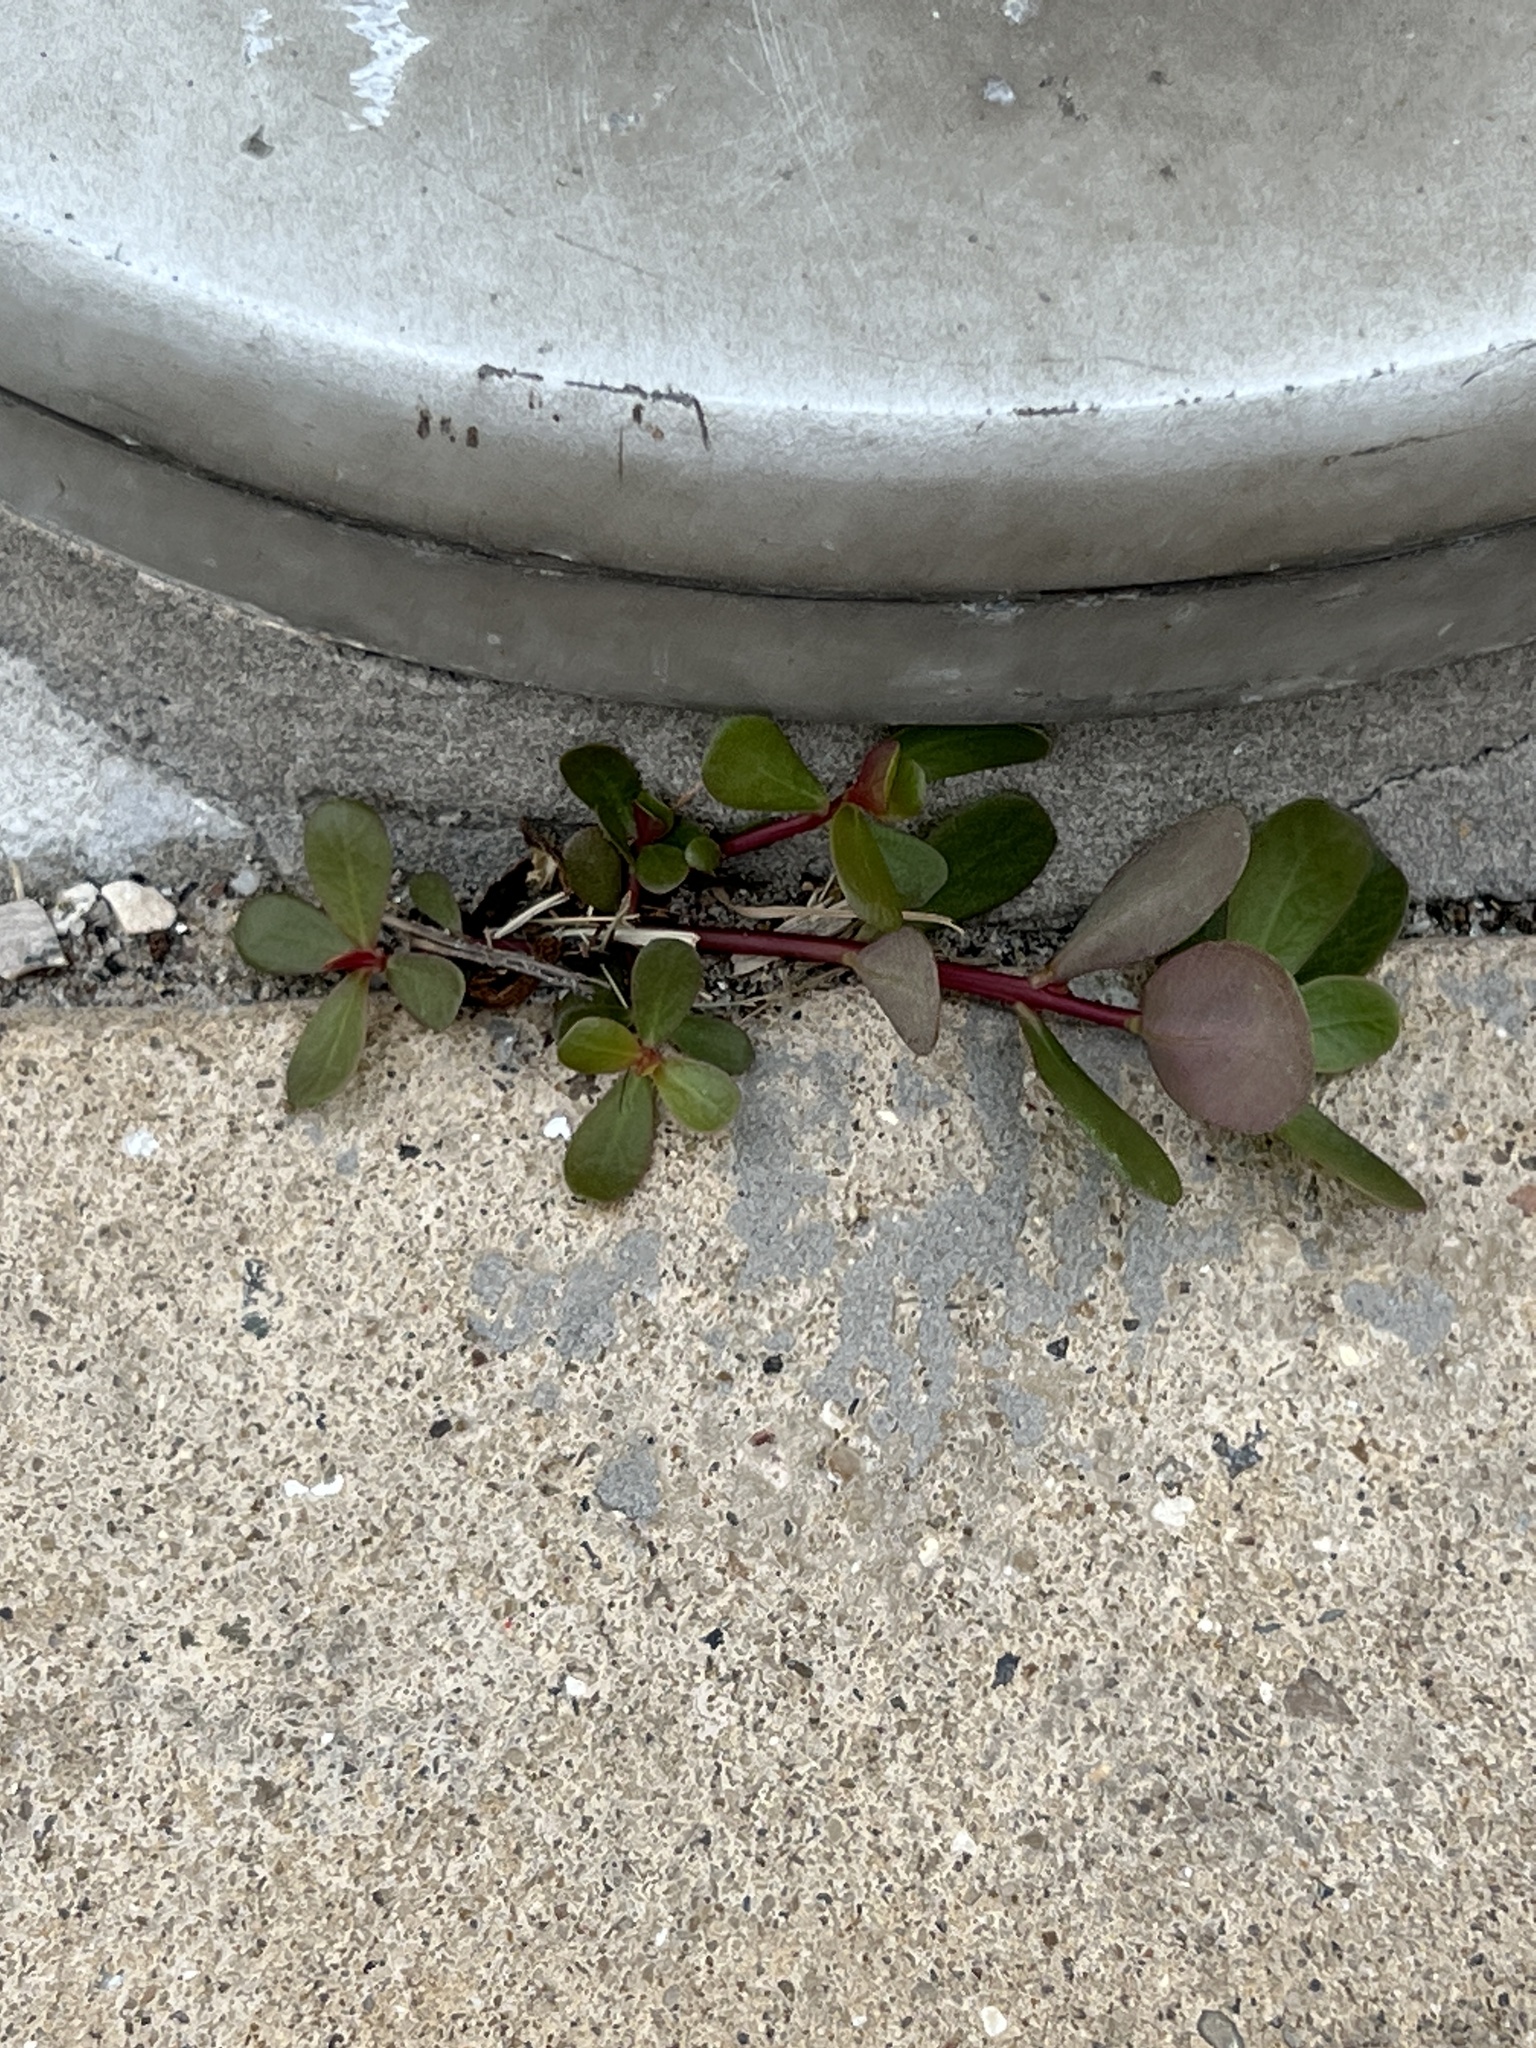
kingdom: Plantae
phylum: Tracheophyta
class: Magnoliopsida
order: Caryophyllales
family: Portulacaceae
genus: Portulaca
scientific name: Portulaca oleracea
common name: Common purslane
